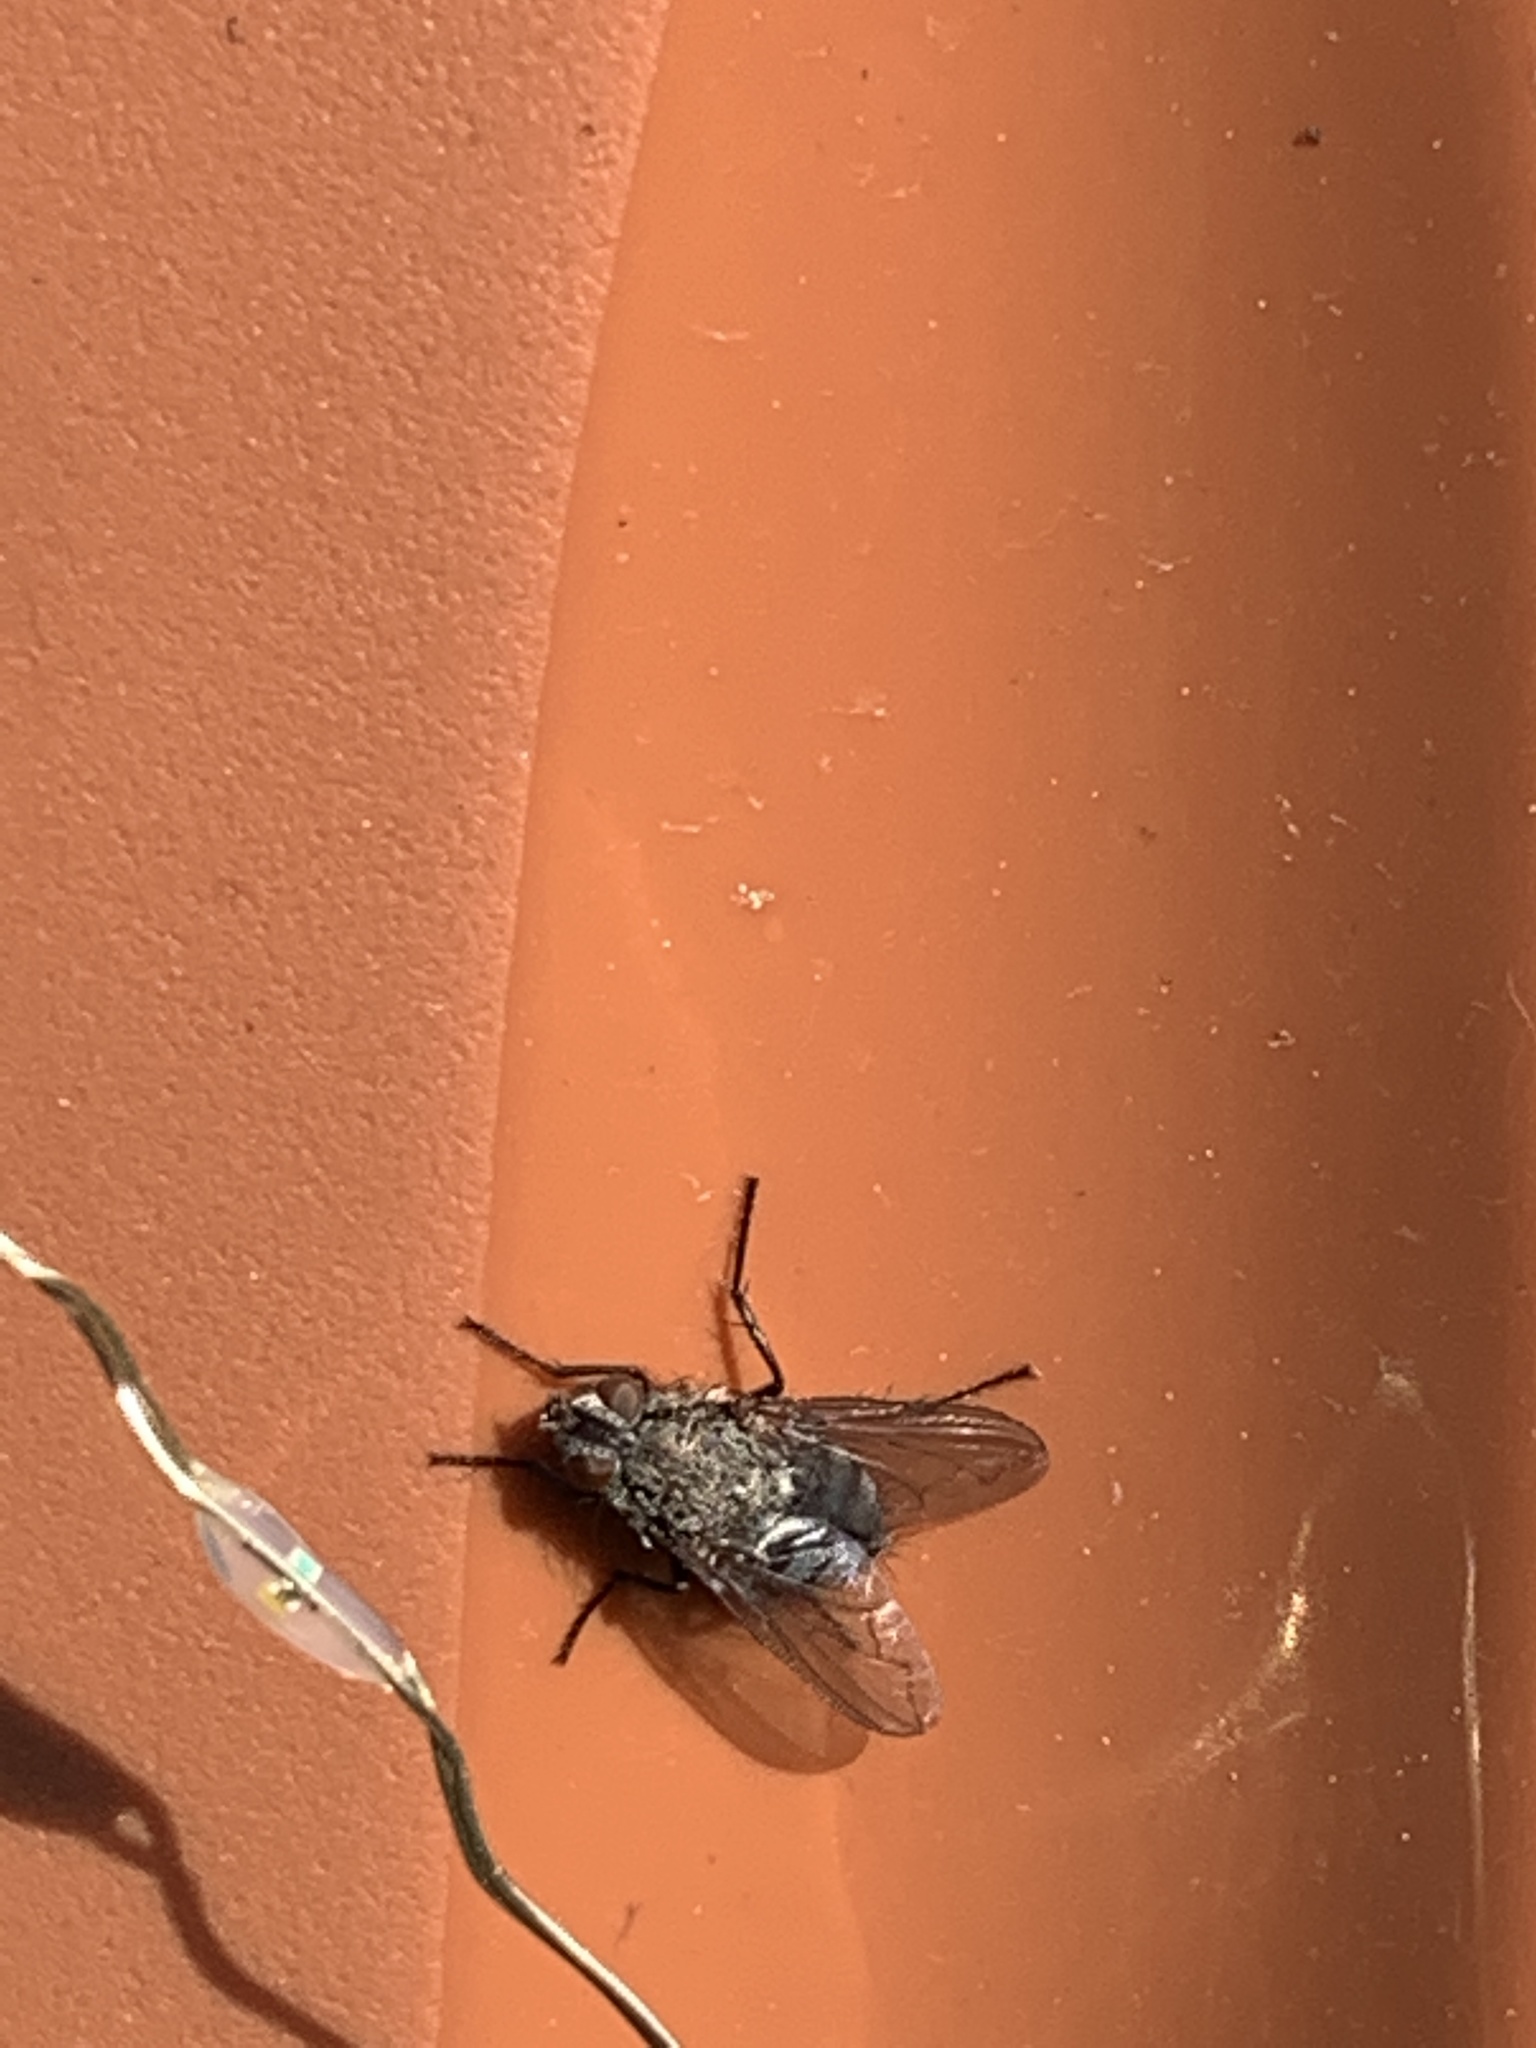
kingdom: Animalia
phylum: Arthropoda
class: Insecta
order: Diptera
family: Polleniidae
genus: Pollenia
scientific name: Pollenia
